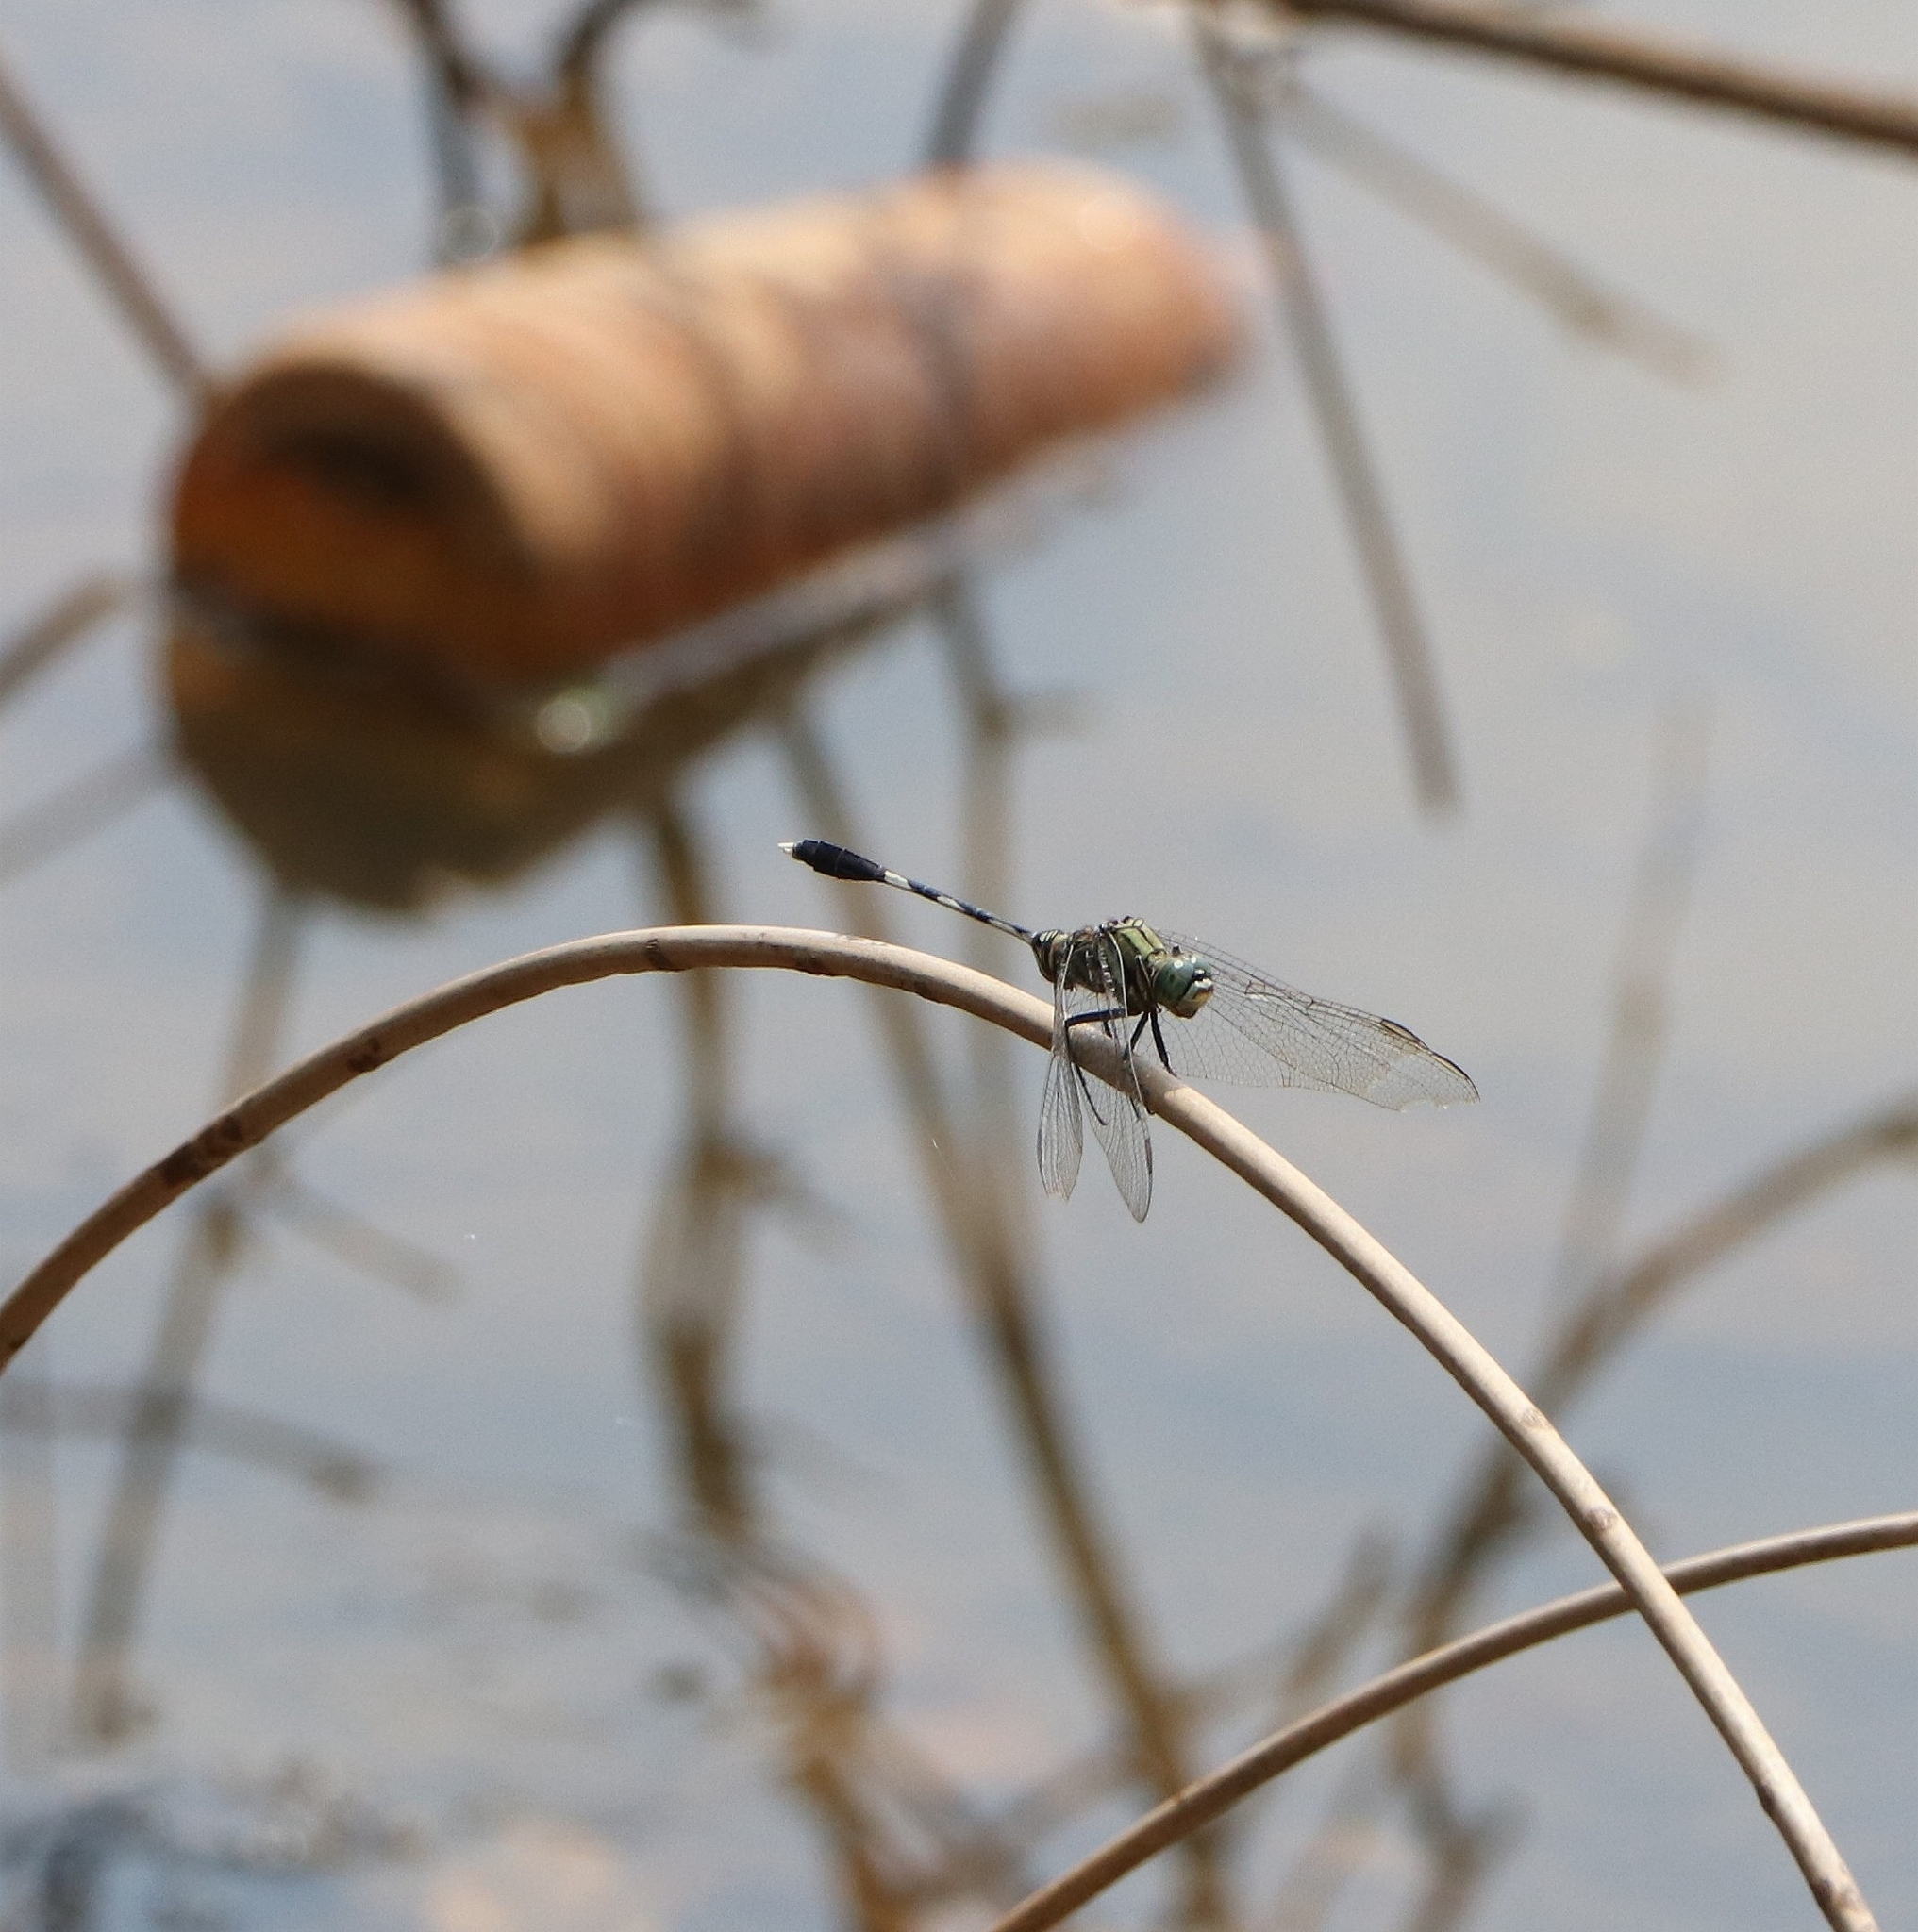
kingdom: Animalia
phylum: Arthropoda
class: Insecta
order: Odonata
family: Libellulidae
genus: Orthetrum
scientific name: Orthetrum sabina
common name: Slender skimmer
